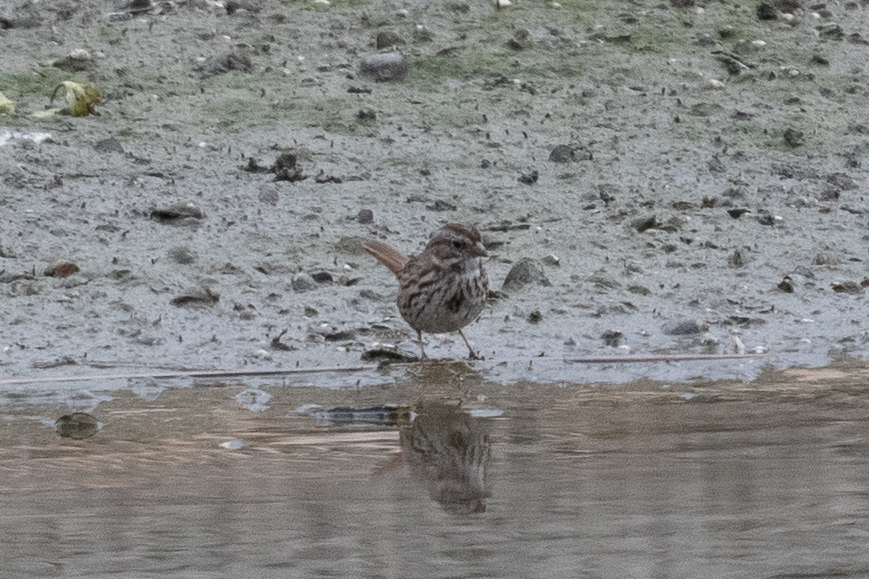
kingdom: Animalia
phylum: Chordata
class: Aves
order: Passeriformes
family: Passerellidae
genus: Melospiza
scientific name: Melospiza melodia
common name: Song sparrow
